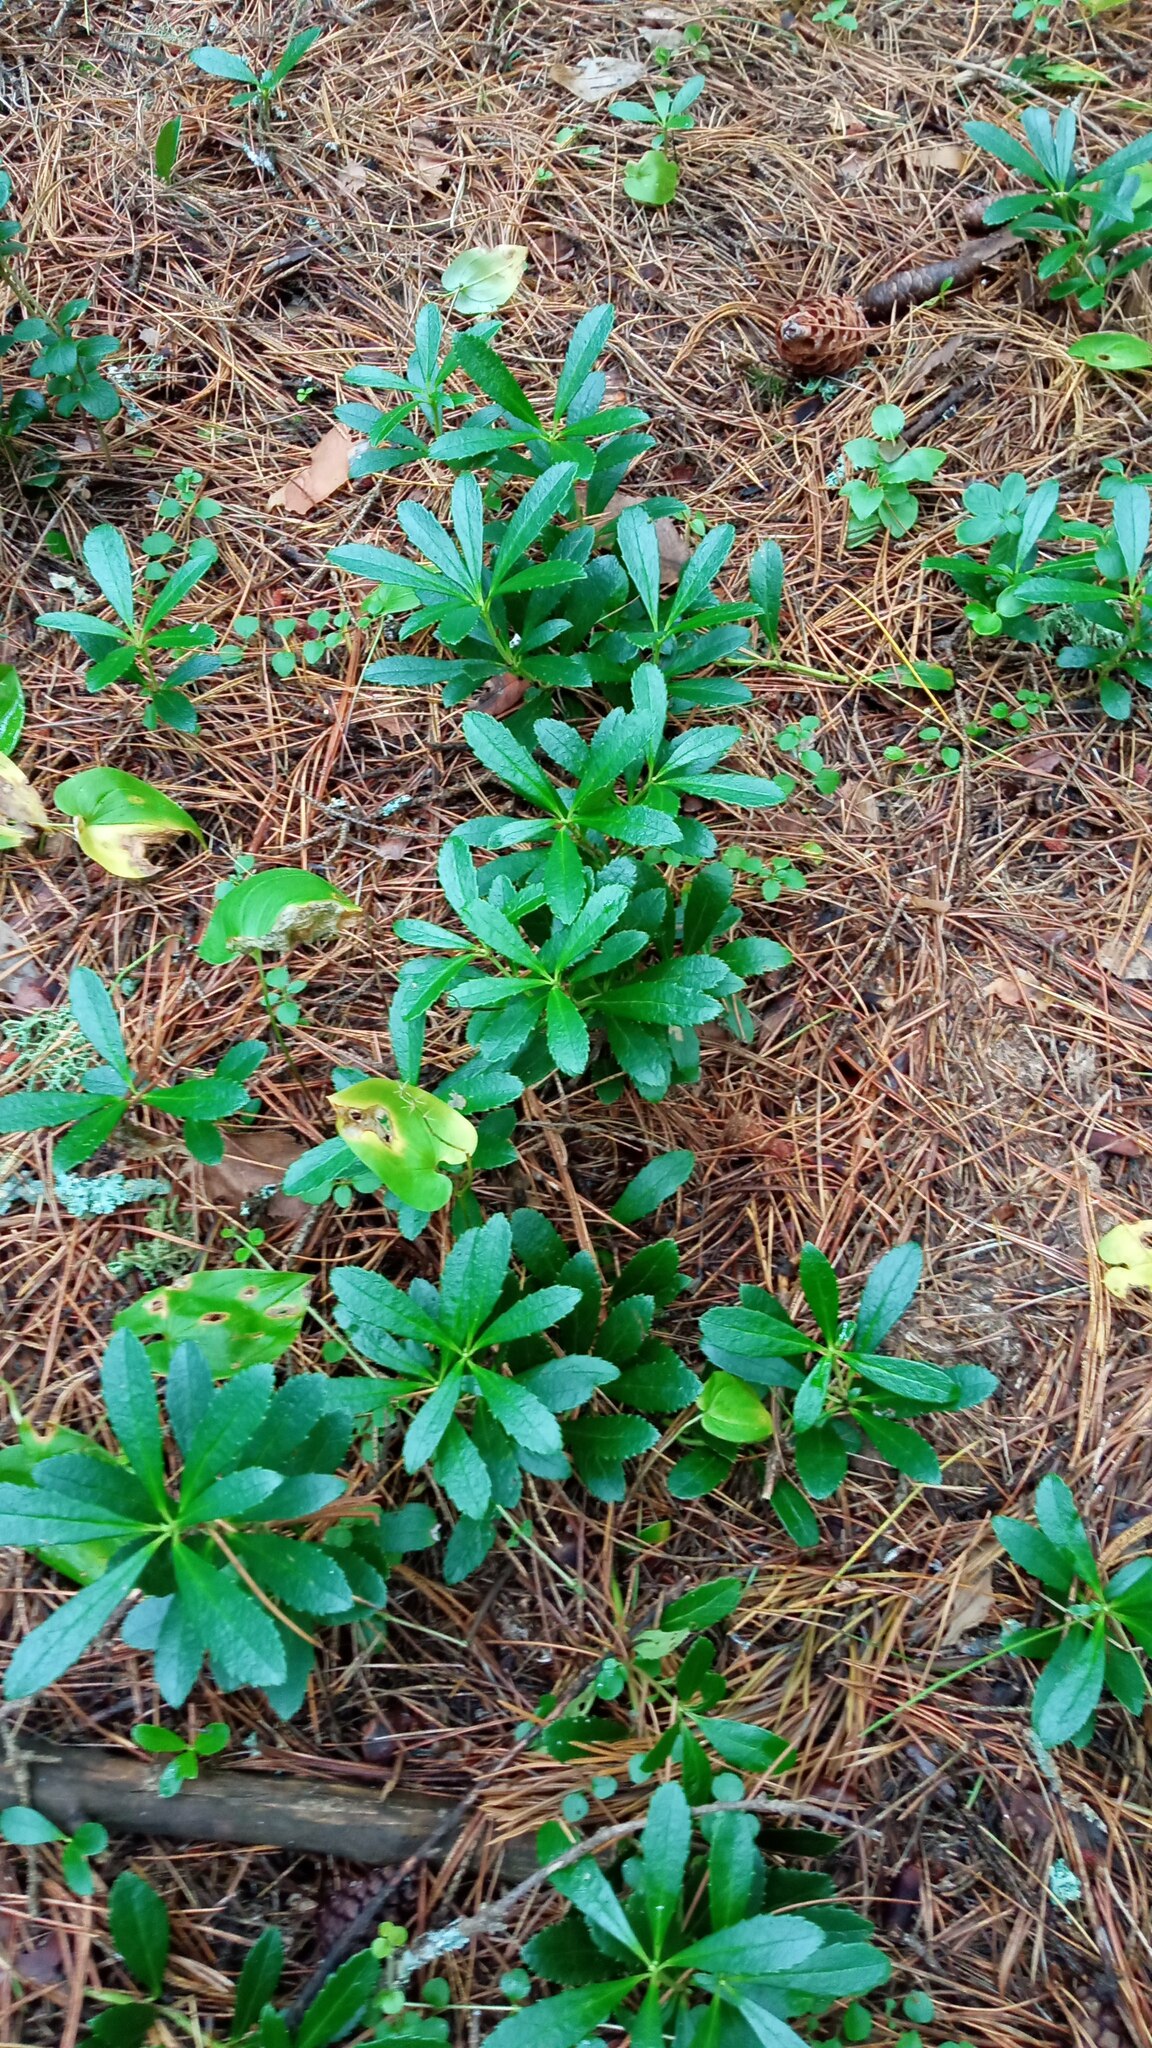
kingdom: Plantae
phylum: Tracheophyta
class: Magnoliopsida
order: Ericales
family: Ericaceae
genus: Chimaphila
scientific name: Chimaphila umbellata
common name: Pipsissewa
